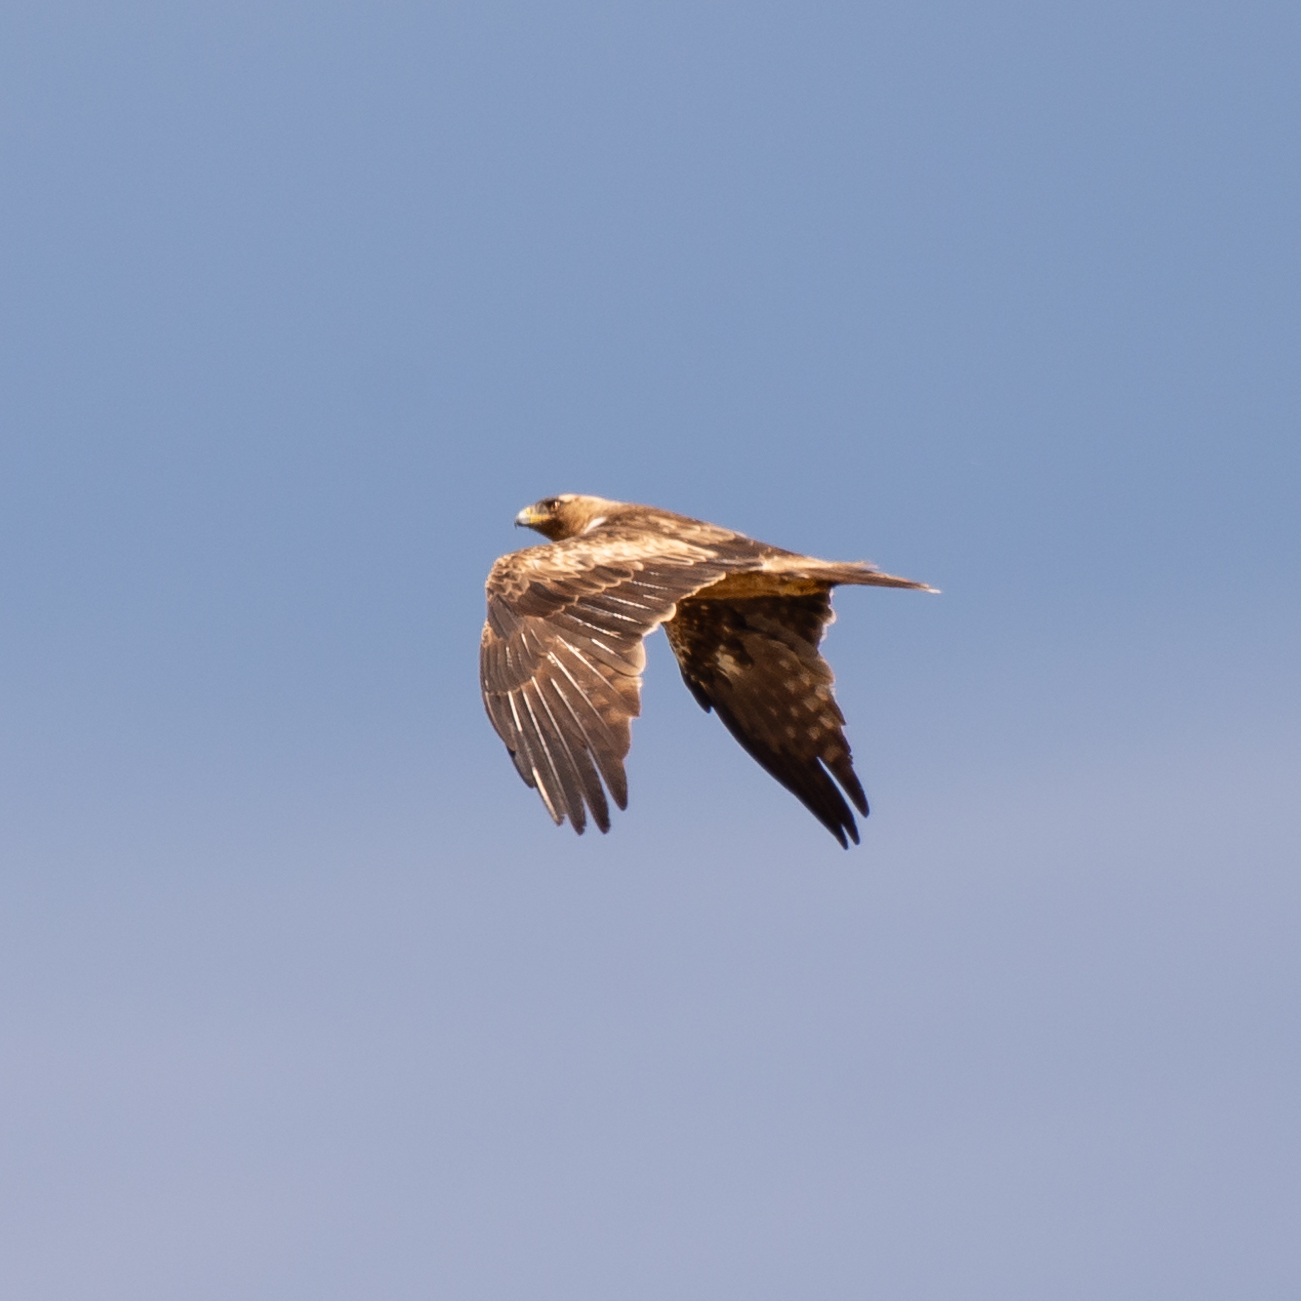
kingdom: Animalia
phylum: Chordata
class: Aves
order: Accipitriformes
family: Accipitridae
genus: Hieraaetus
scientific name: Hieraaetus pennatus
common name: Booted eagle
